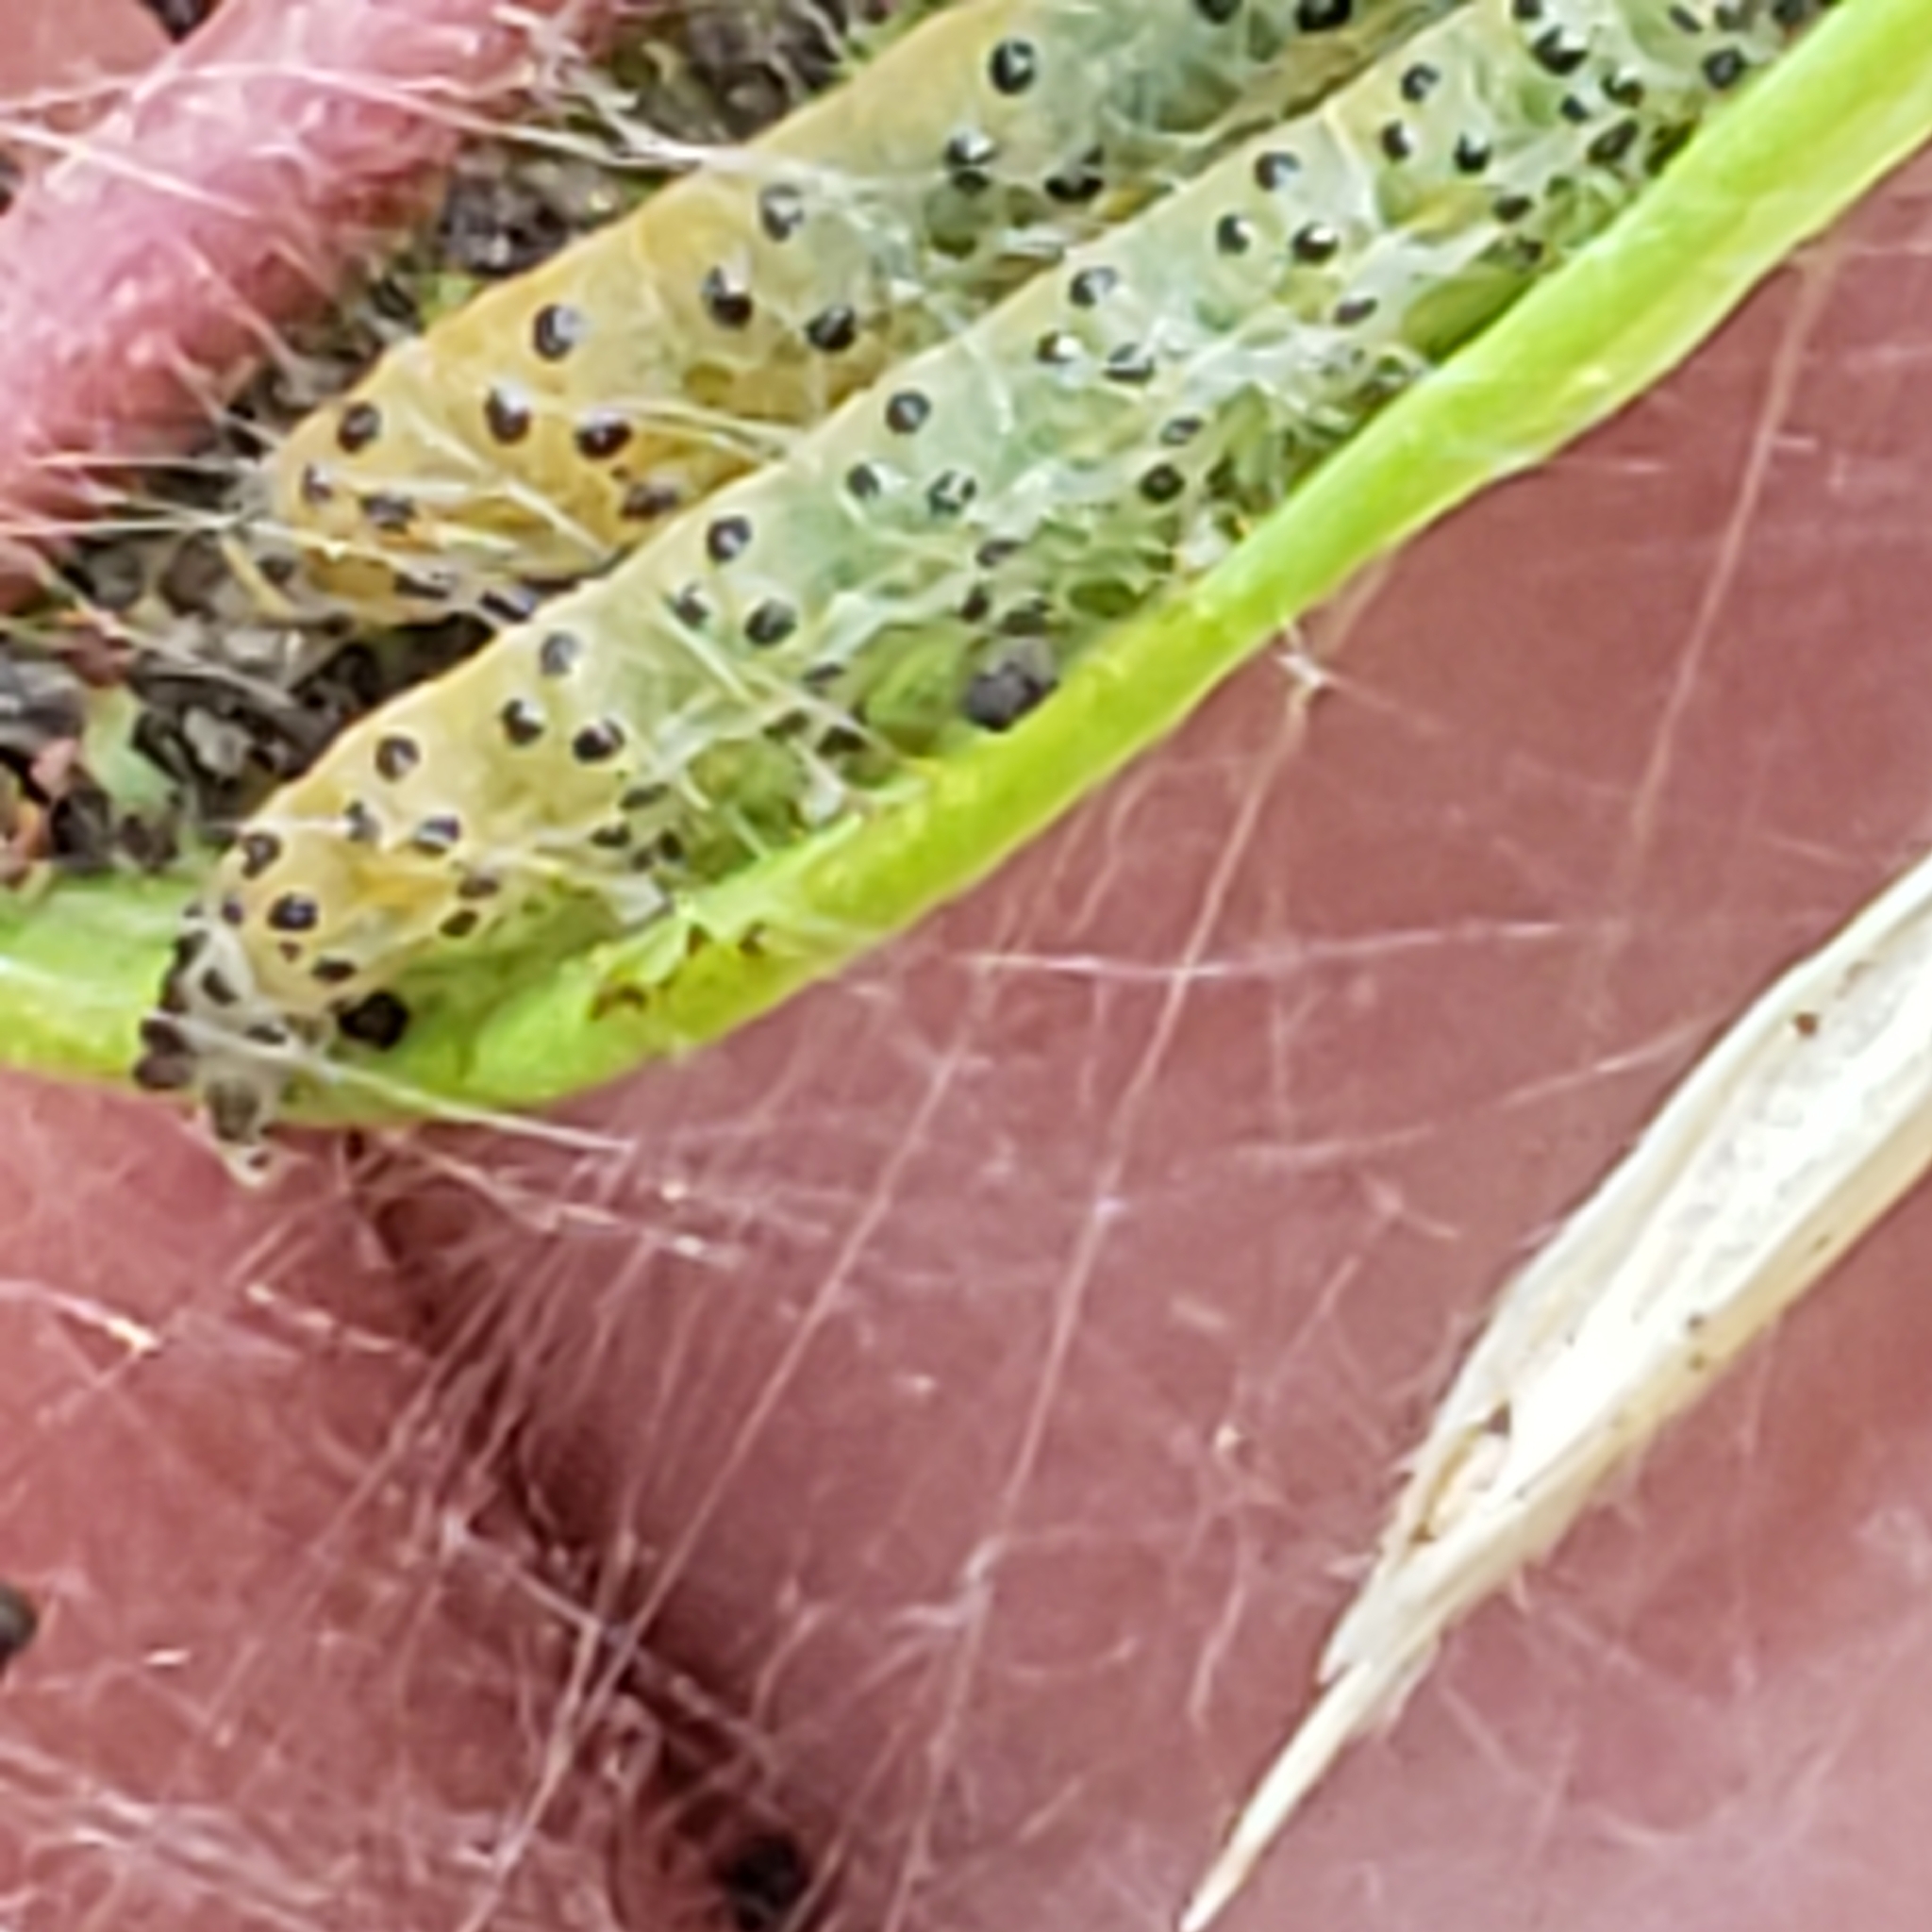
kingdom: Animalia
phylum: Arthropoda
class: Insecta
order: Lepidoptera
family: Crambidae
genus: Saucrobotys
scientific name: Saucrobotys futilalis
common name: Dogbane saucrobotys moth
